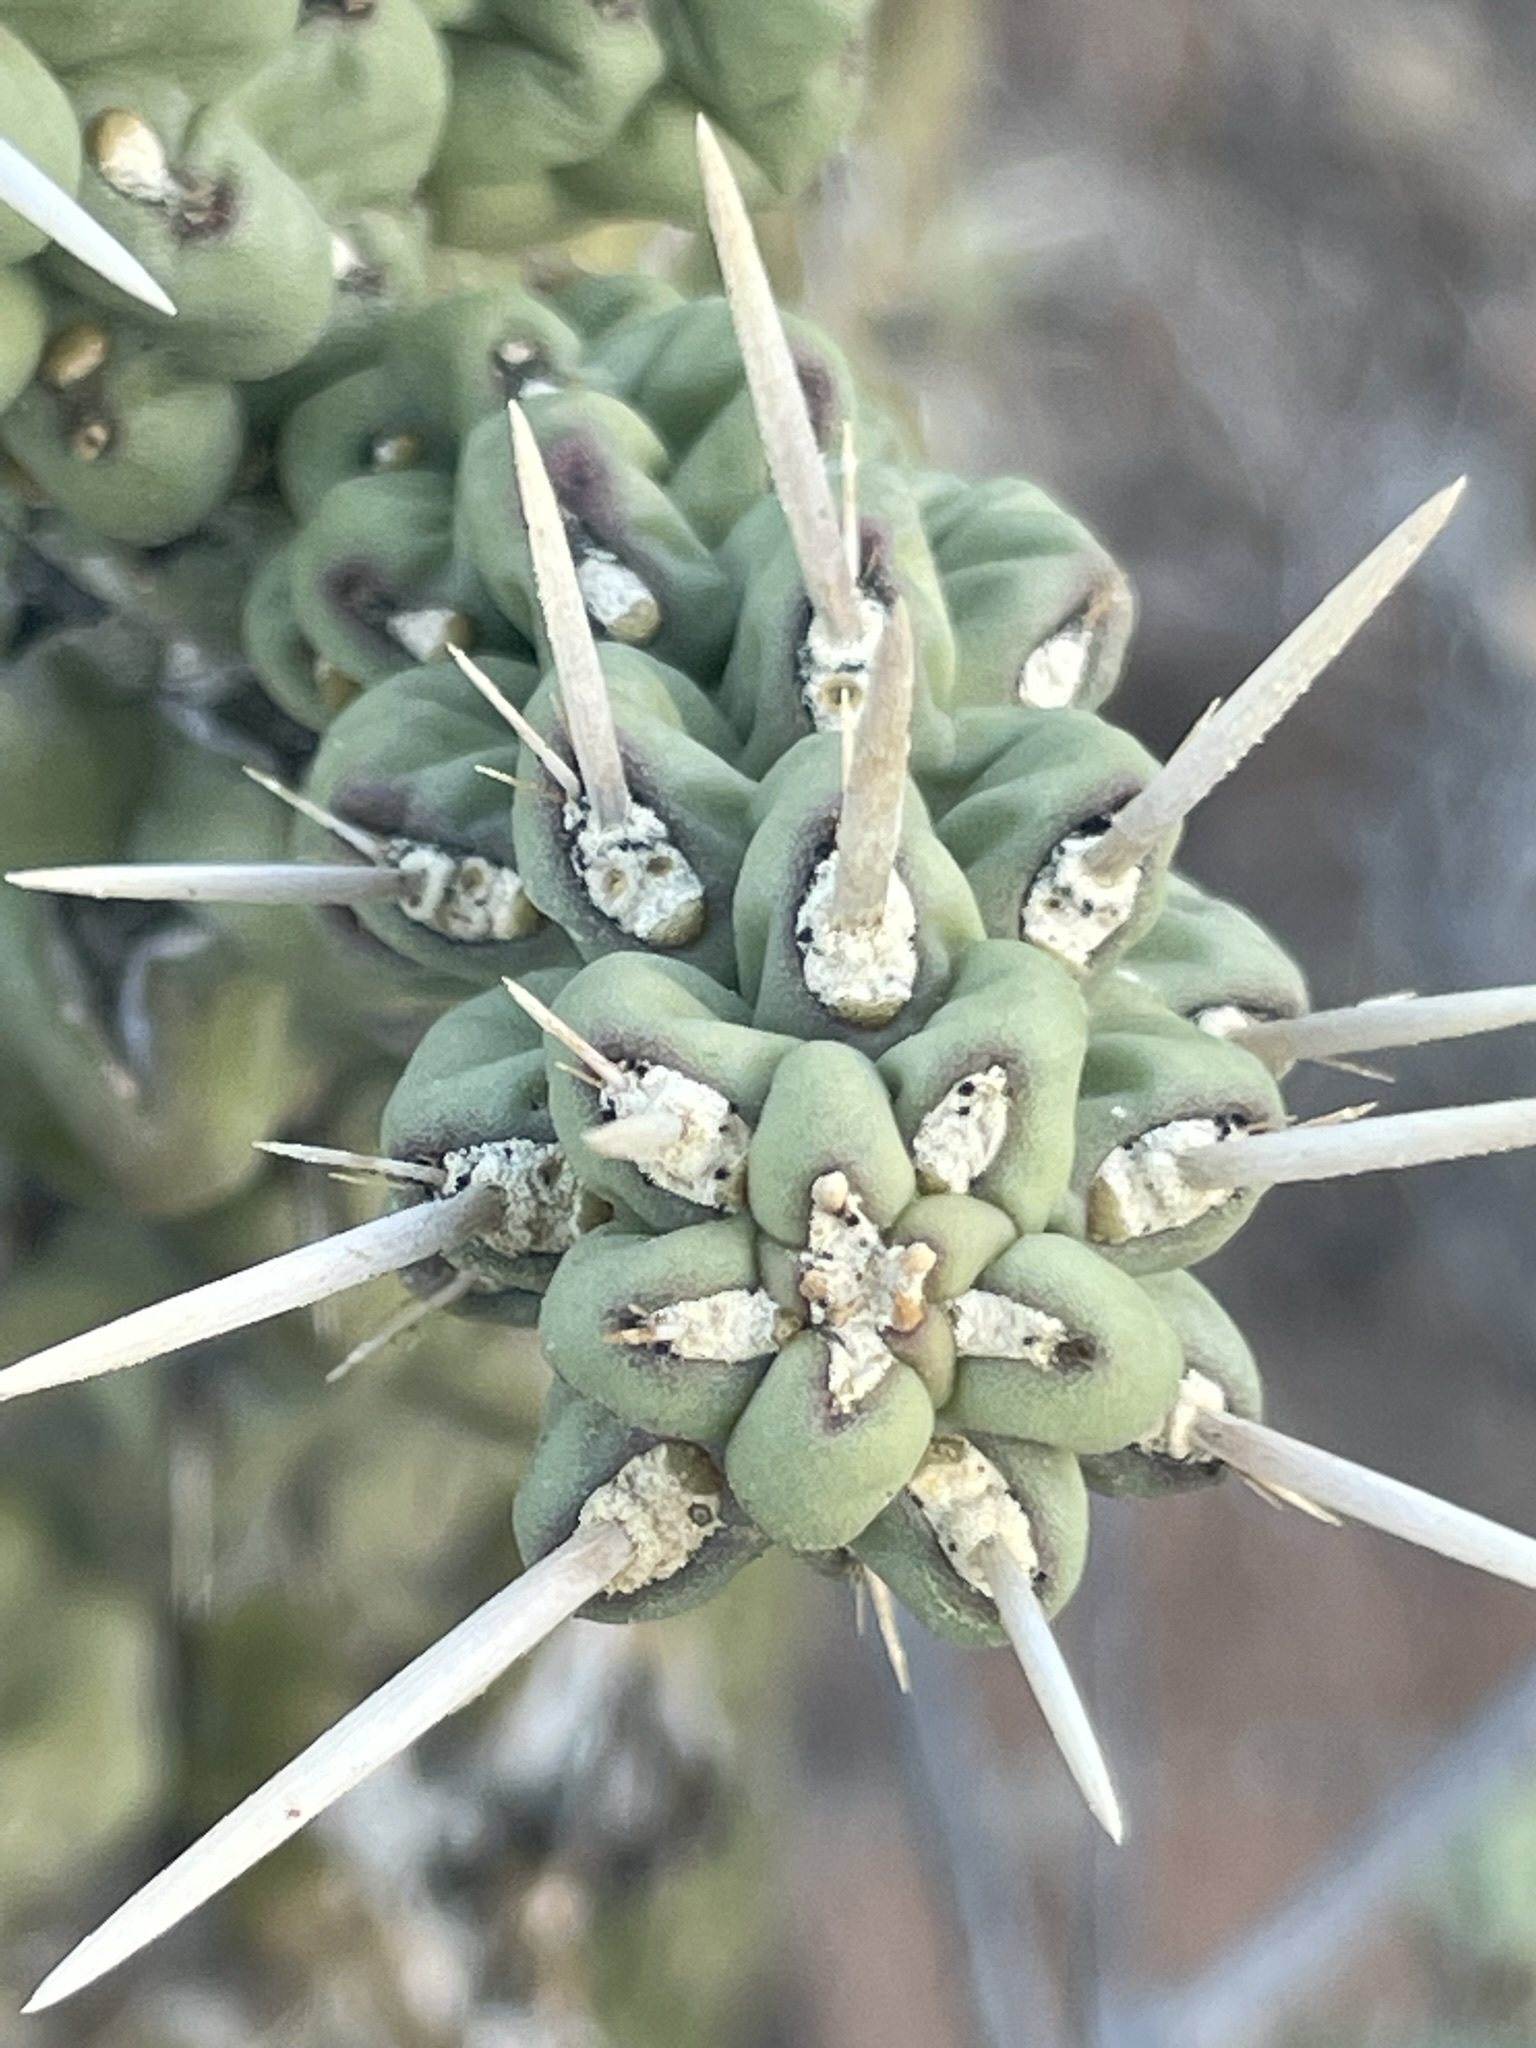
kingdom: Plantae
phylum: Tracheophyta
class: Magnoliopsida
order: Caryophyllales
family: Cactaceae
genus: Cylindropuntia
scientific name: Cylindropuntia cholla
